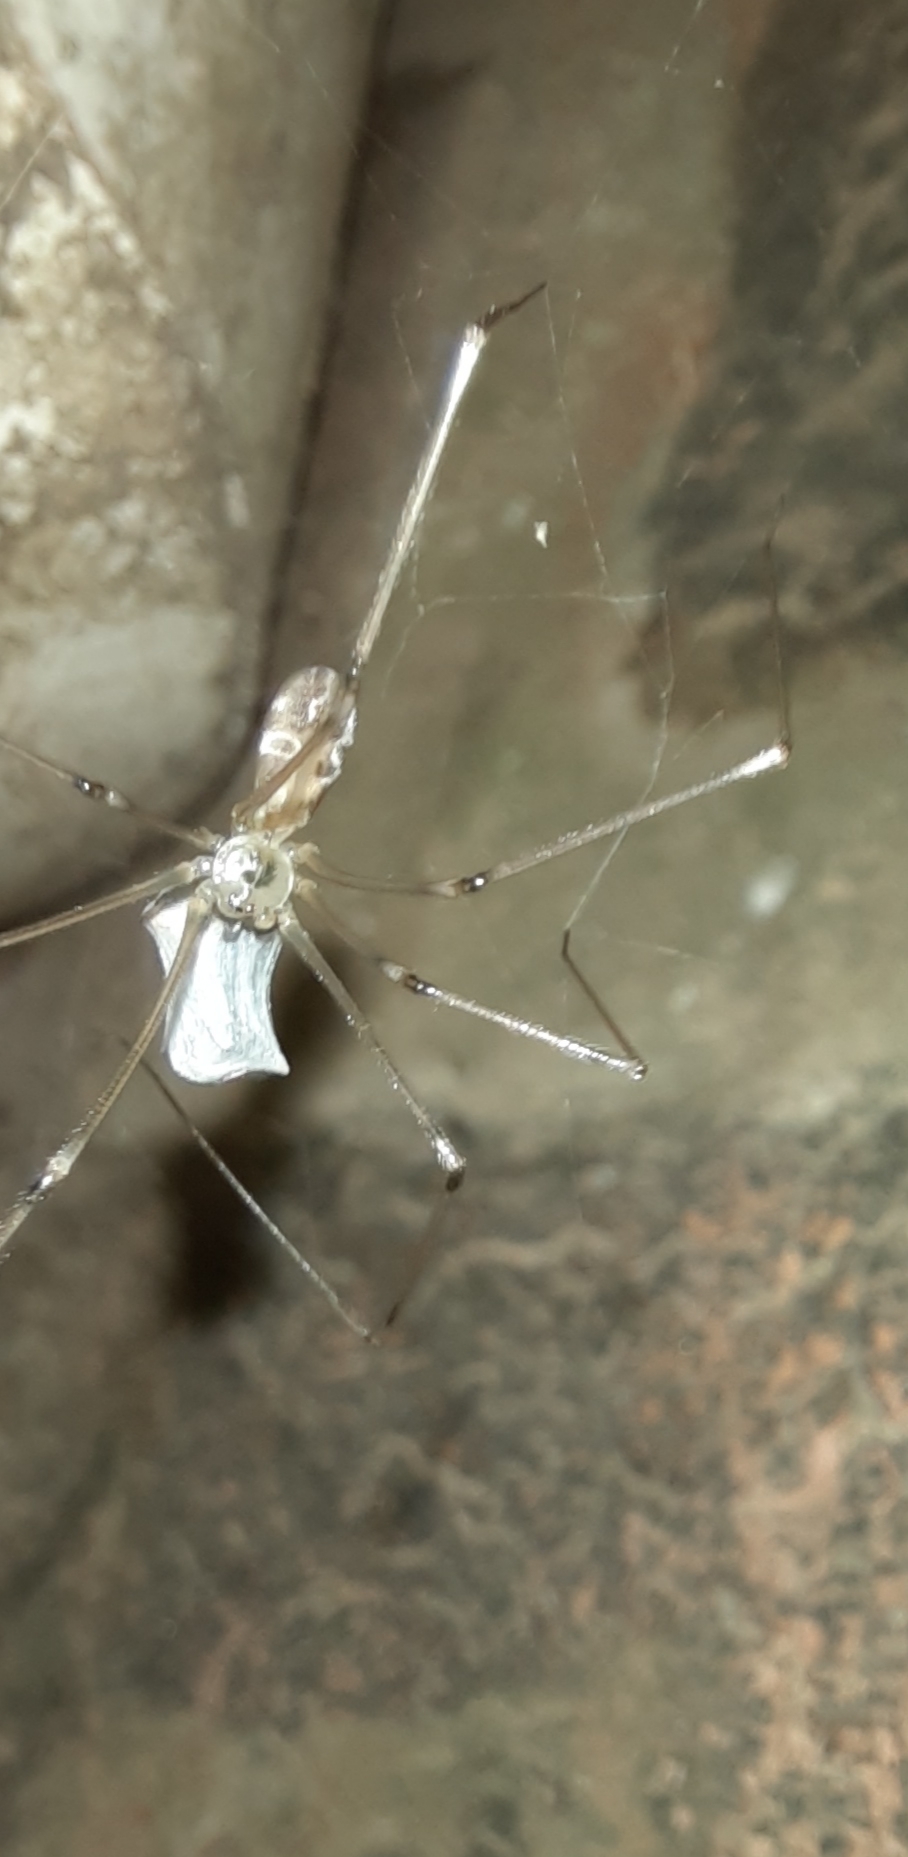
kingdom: Animalia
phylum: Arthropoda
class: Arachnida
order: Araneae
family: Pholcidae
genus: Pholcus
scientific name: Pholcus phalangioides
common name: Longbodied cellar spider
